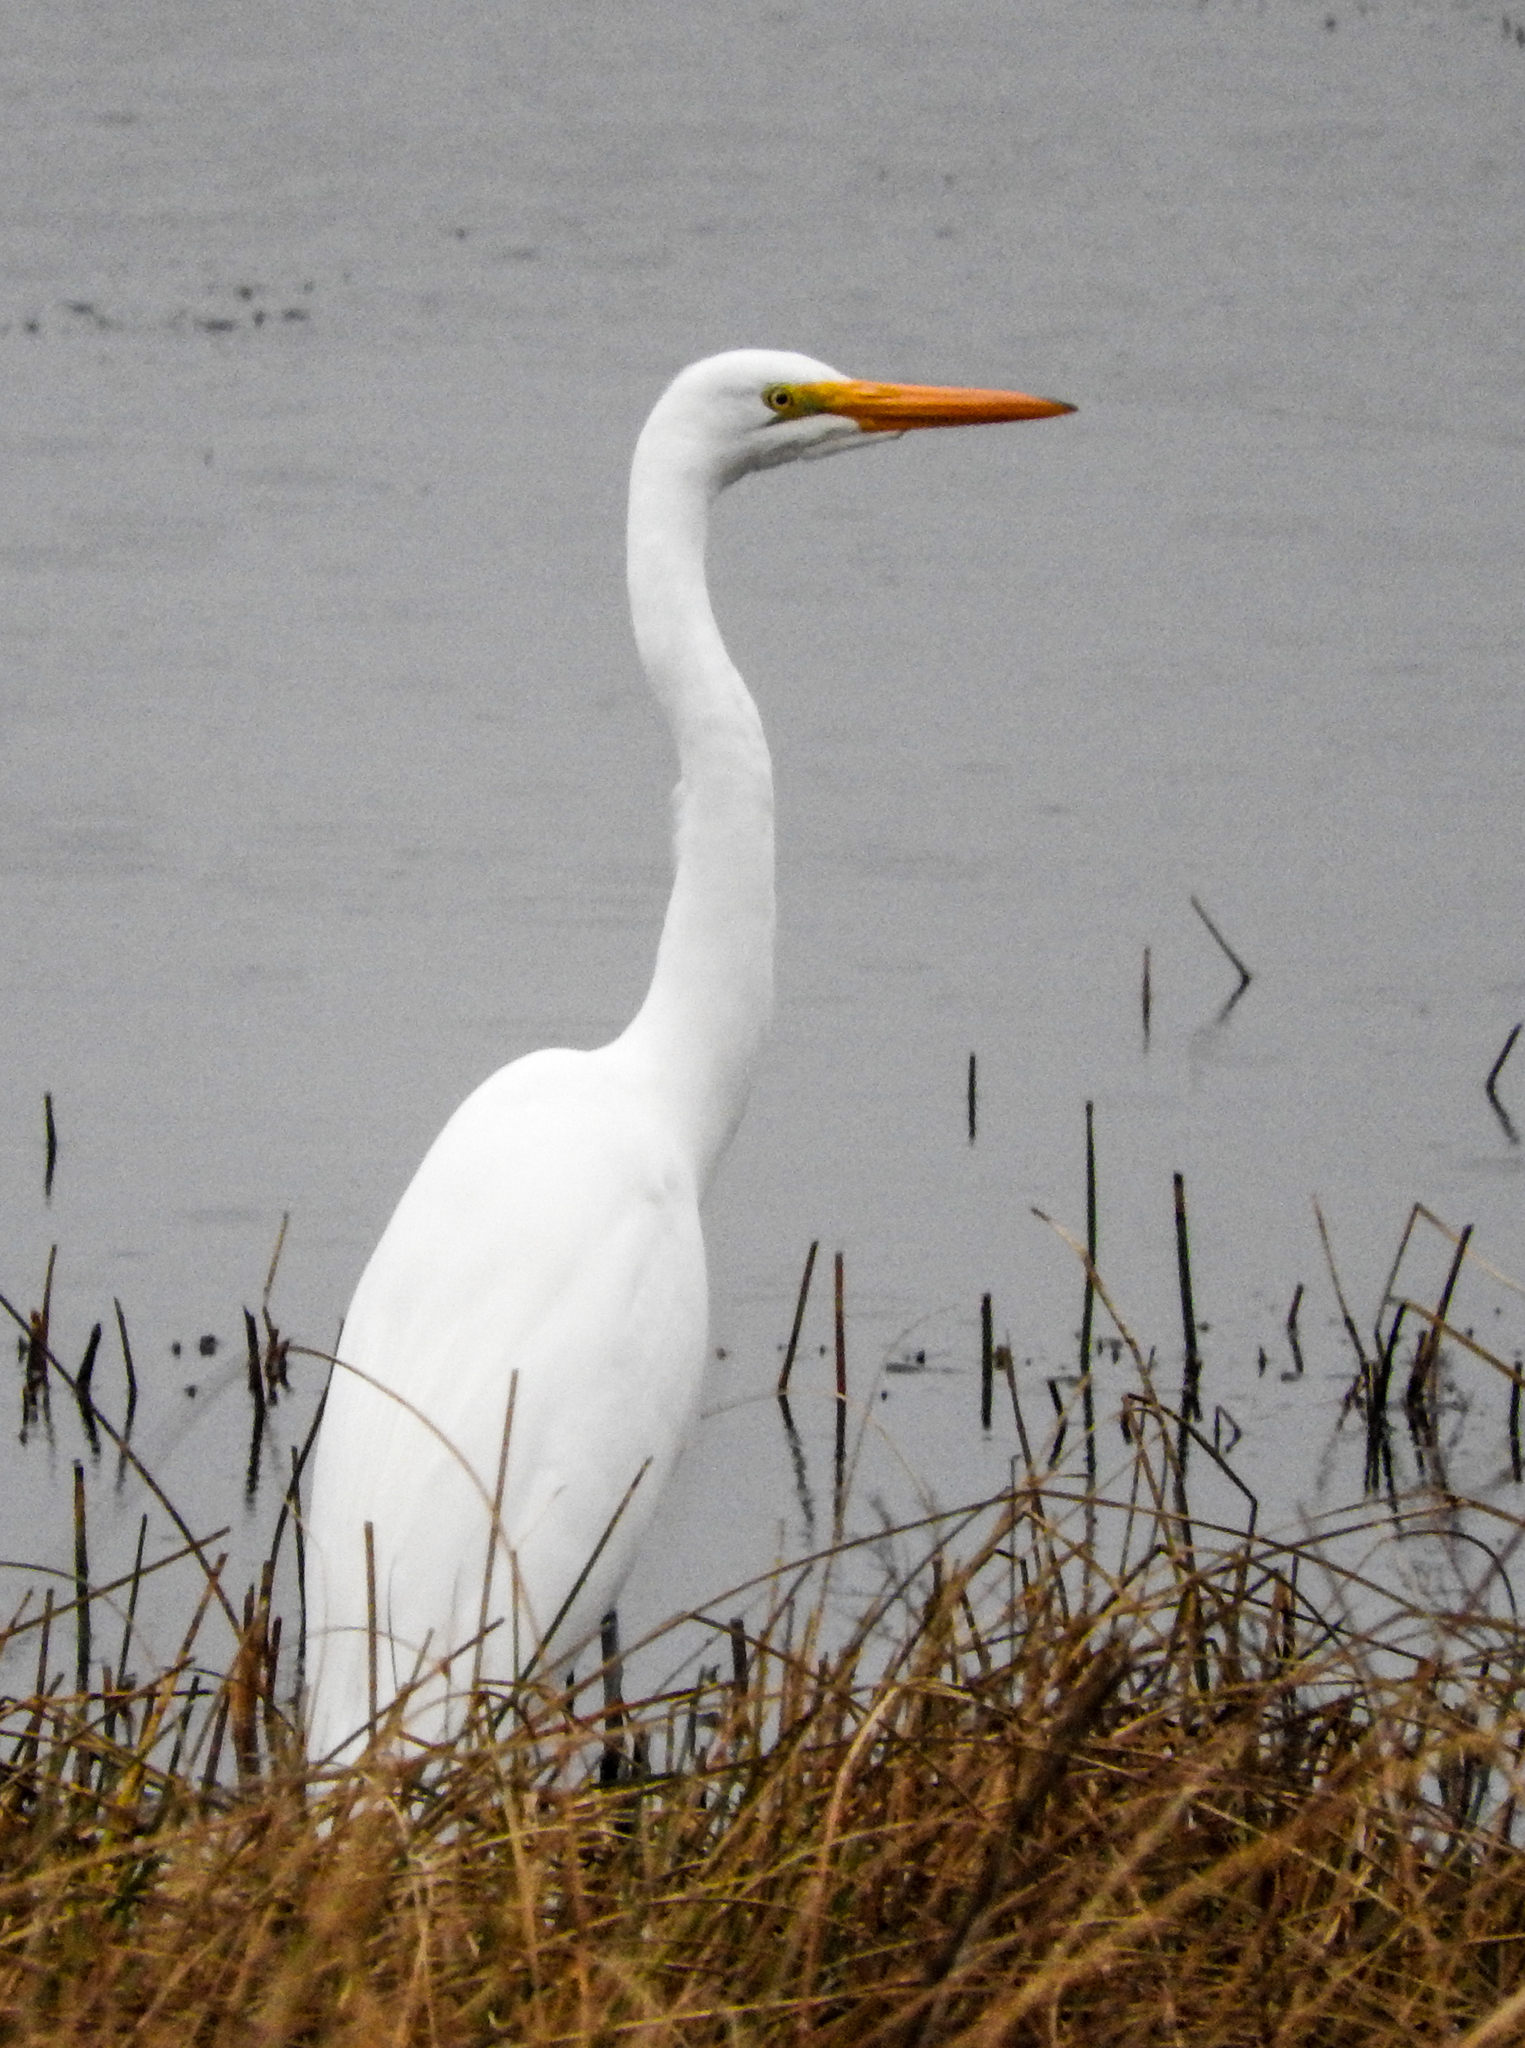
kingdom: Animalia
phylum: Chordata
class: Aves
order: Pelecaniformes
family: Ardeidae
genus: Ardea
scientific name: Ardea alba
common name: Great egret
